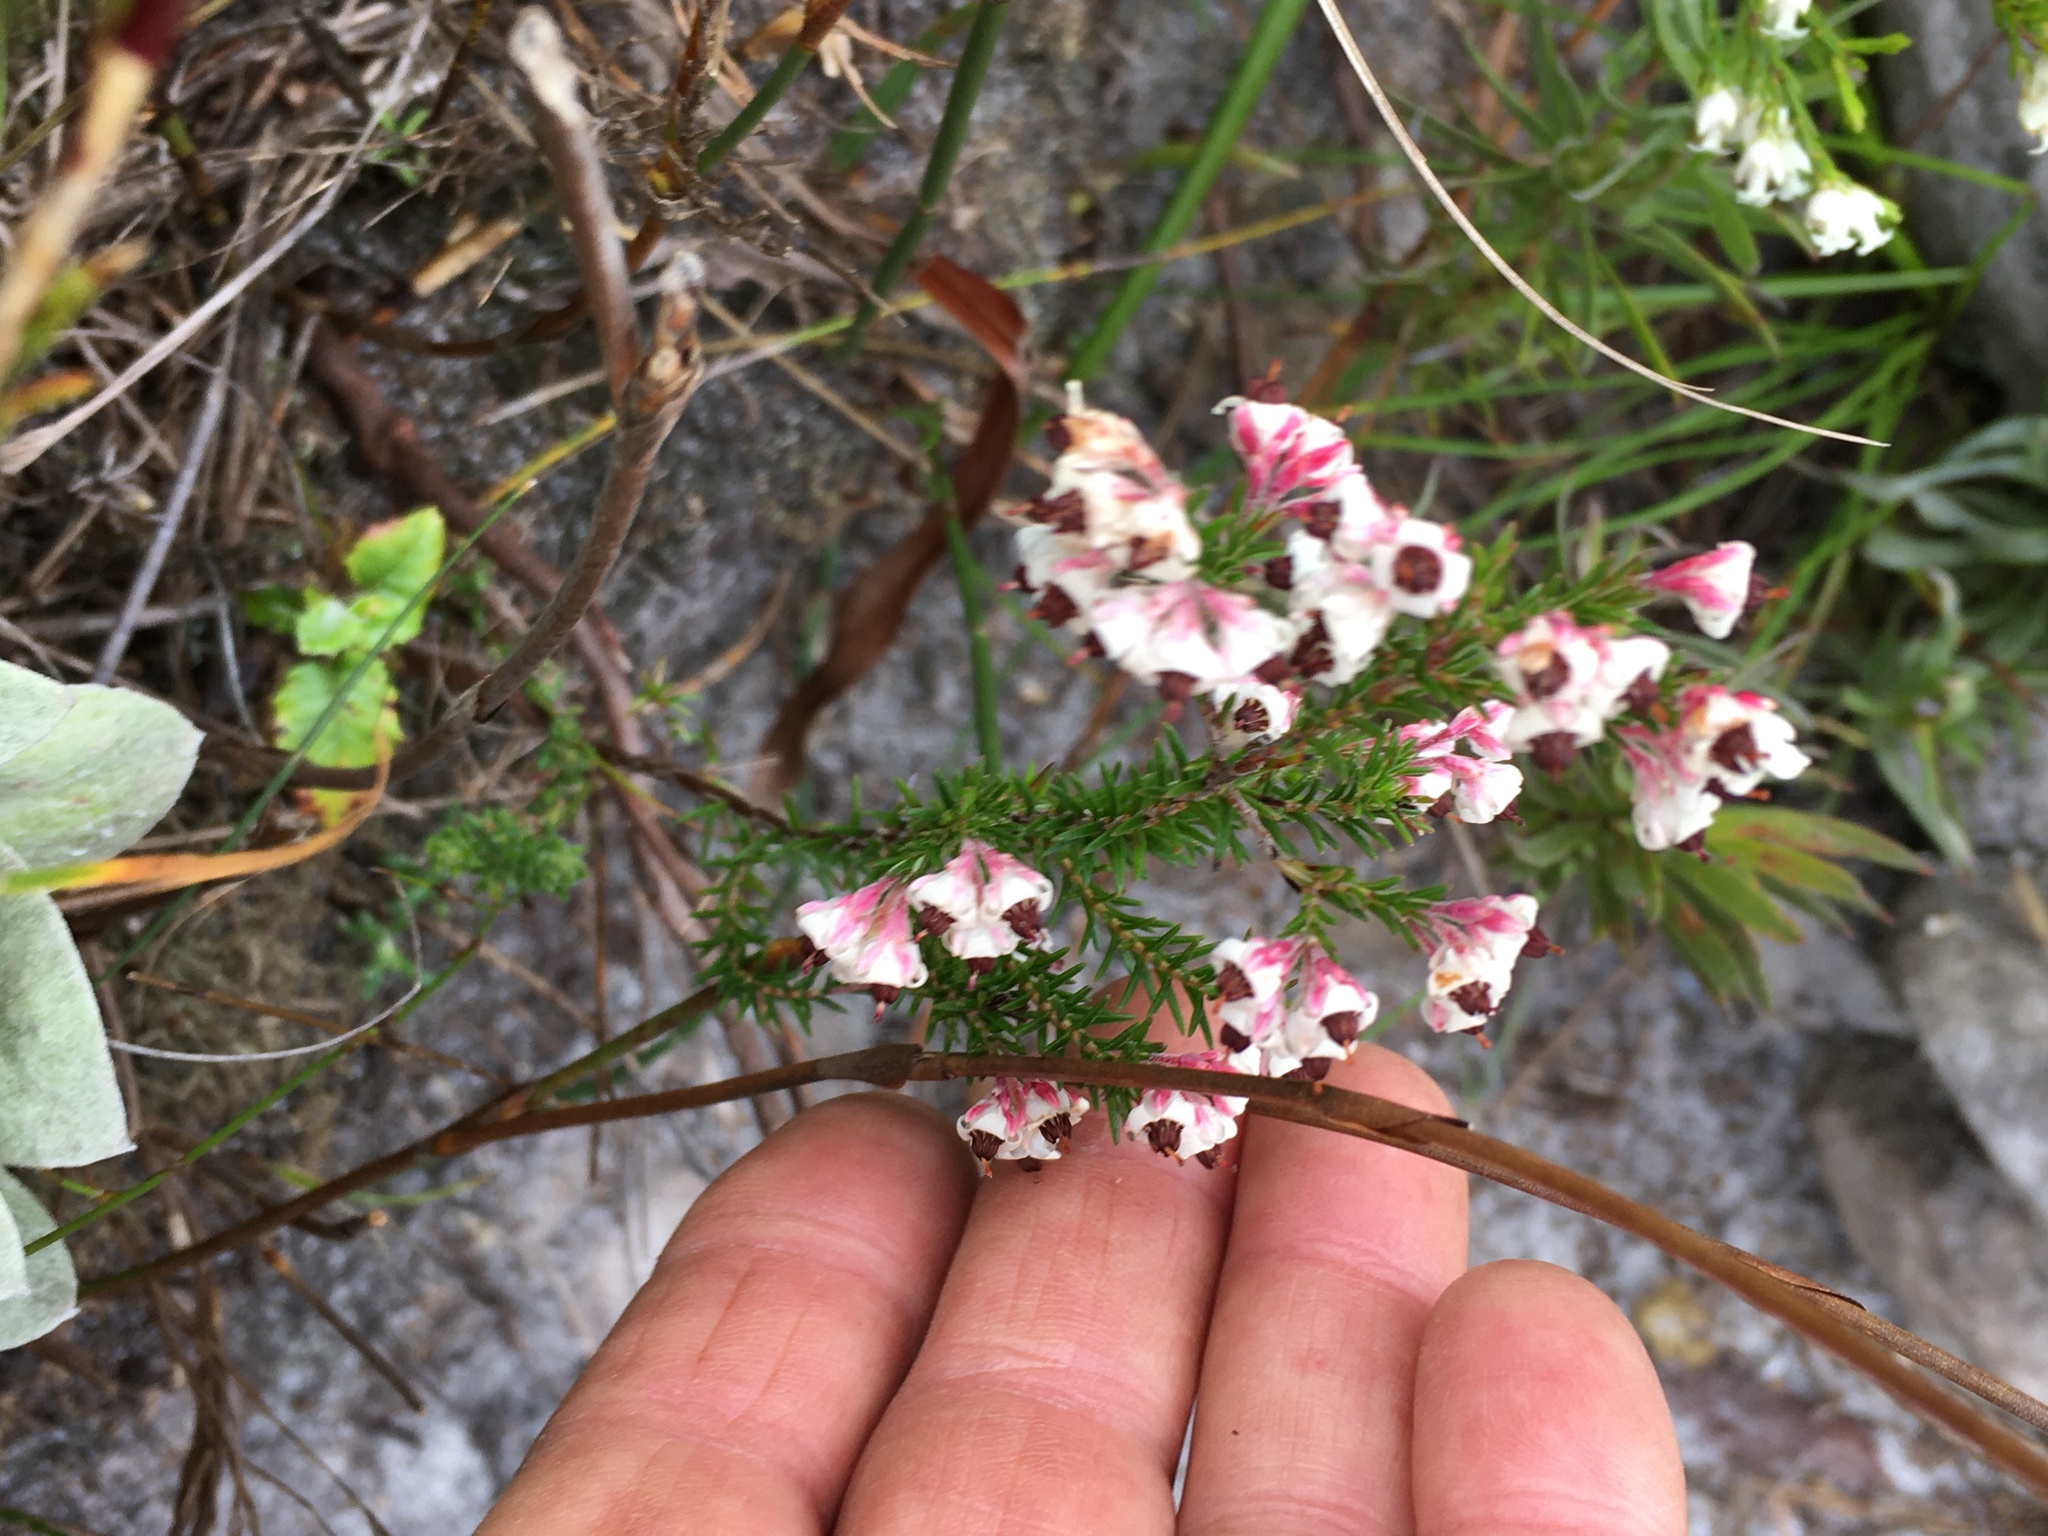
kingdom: Plantae
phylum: Tracheophyta
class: Magnoliopsida
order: Ericales
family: Ericaceae
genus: Erica
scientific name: Erica calycina
